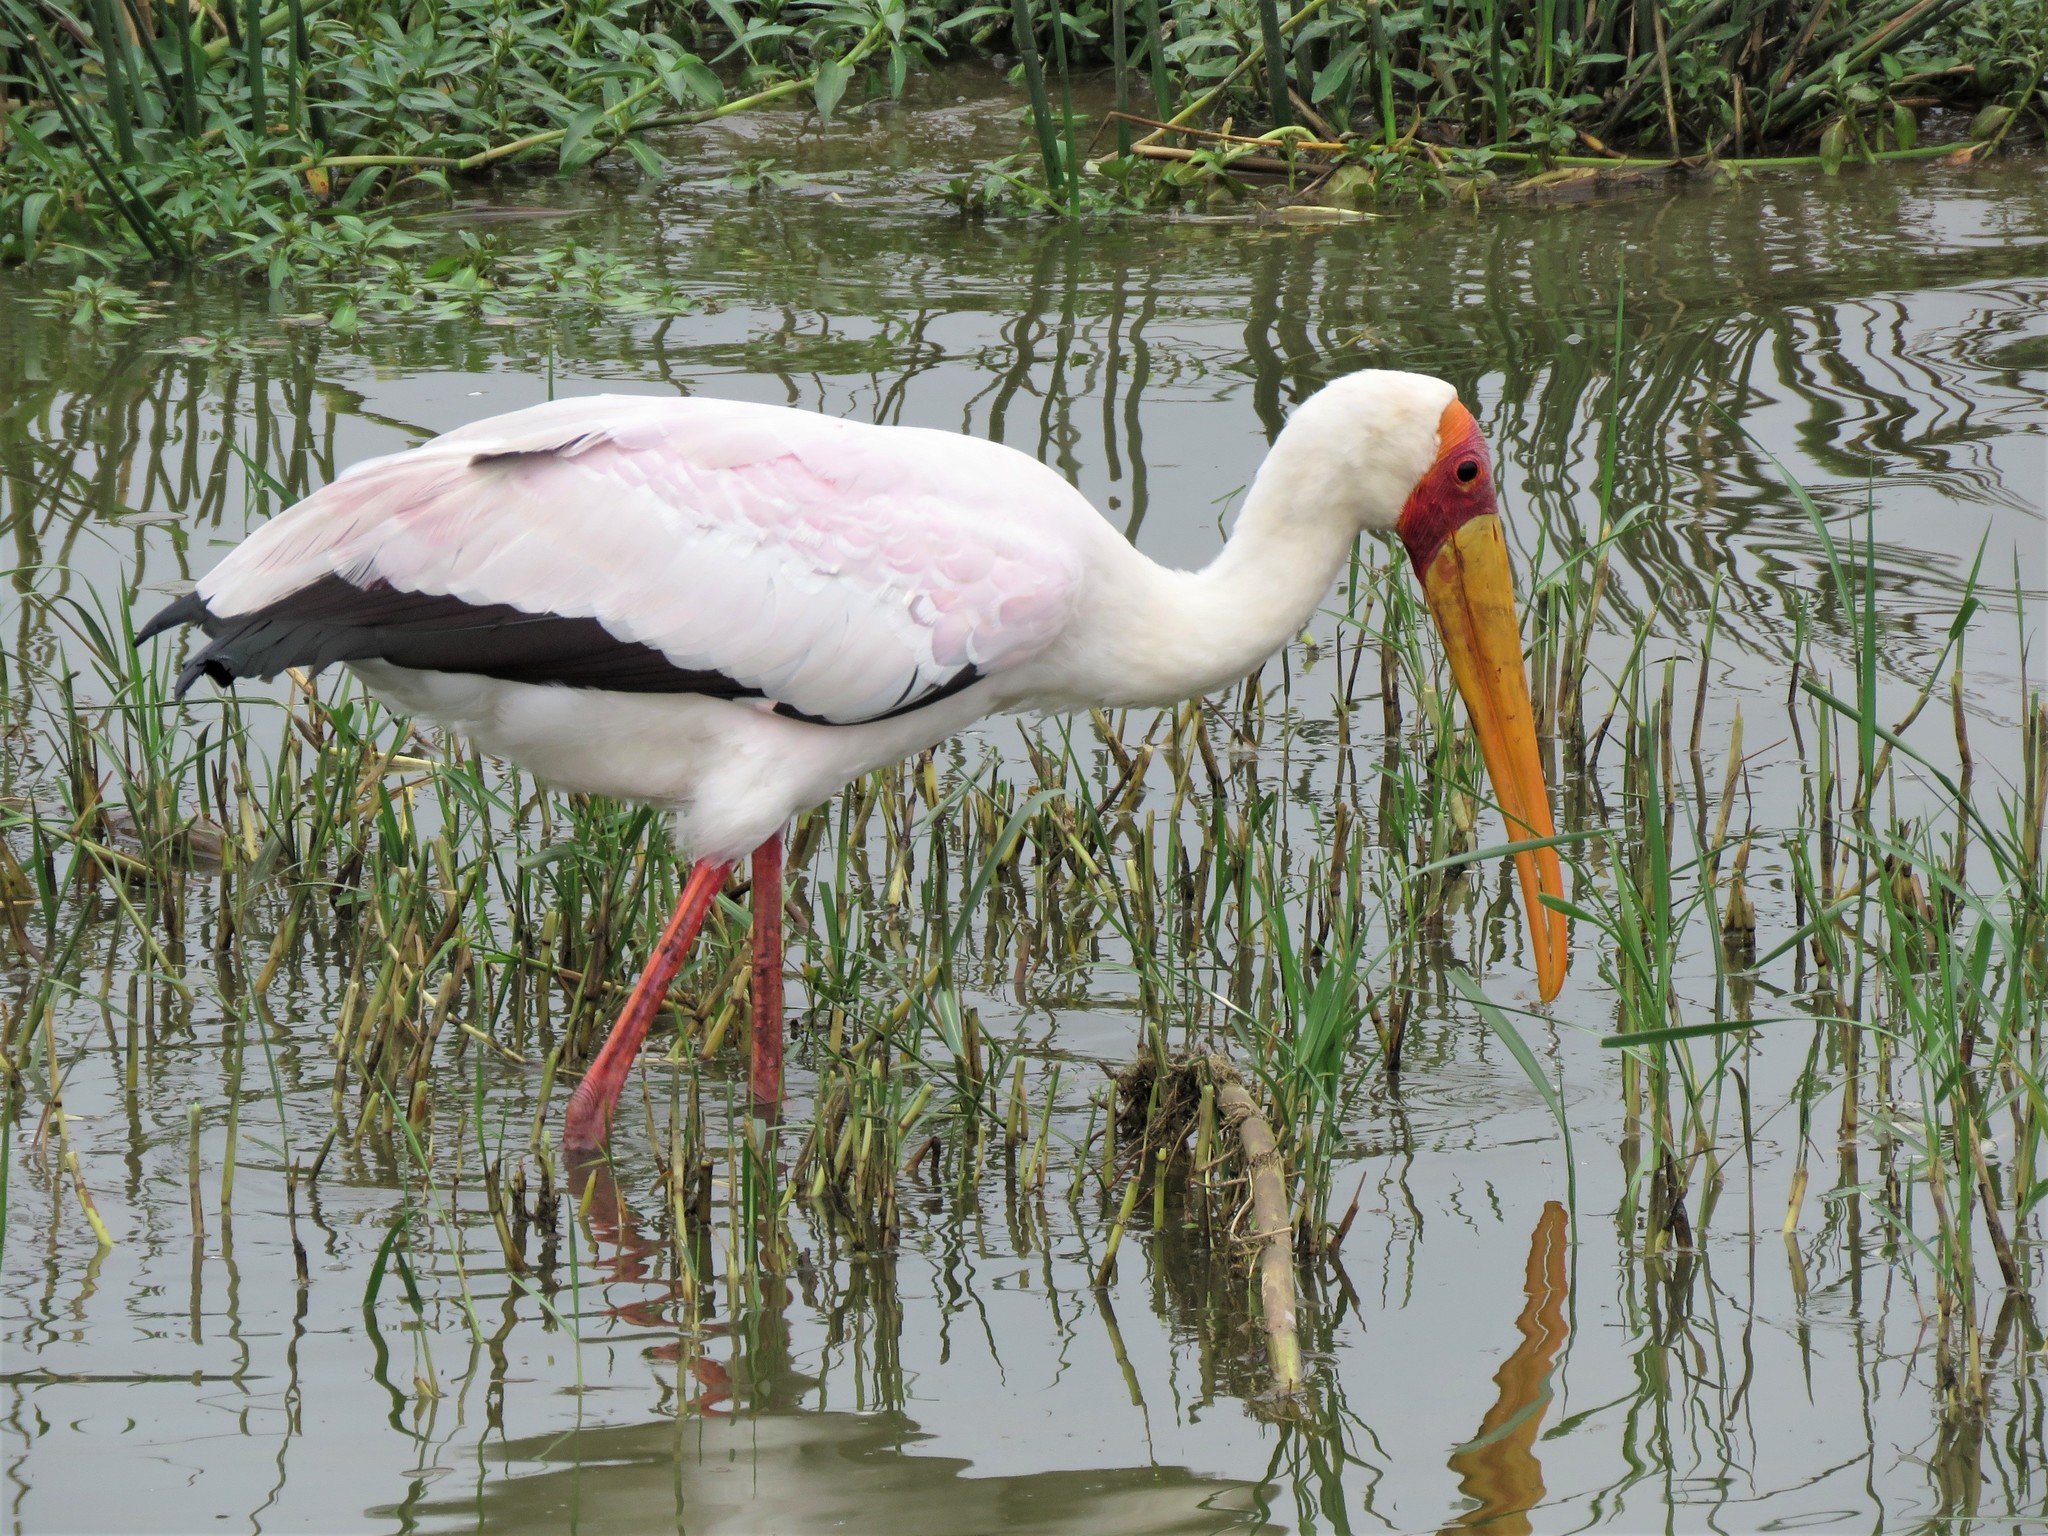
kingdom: Animalia
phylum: Chordata
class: Aves
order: Ciconiiformes
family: Ciconiidae
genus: Mycteria
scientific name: Mycteria ibis
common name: Yellow-billed stork
